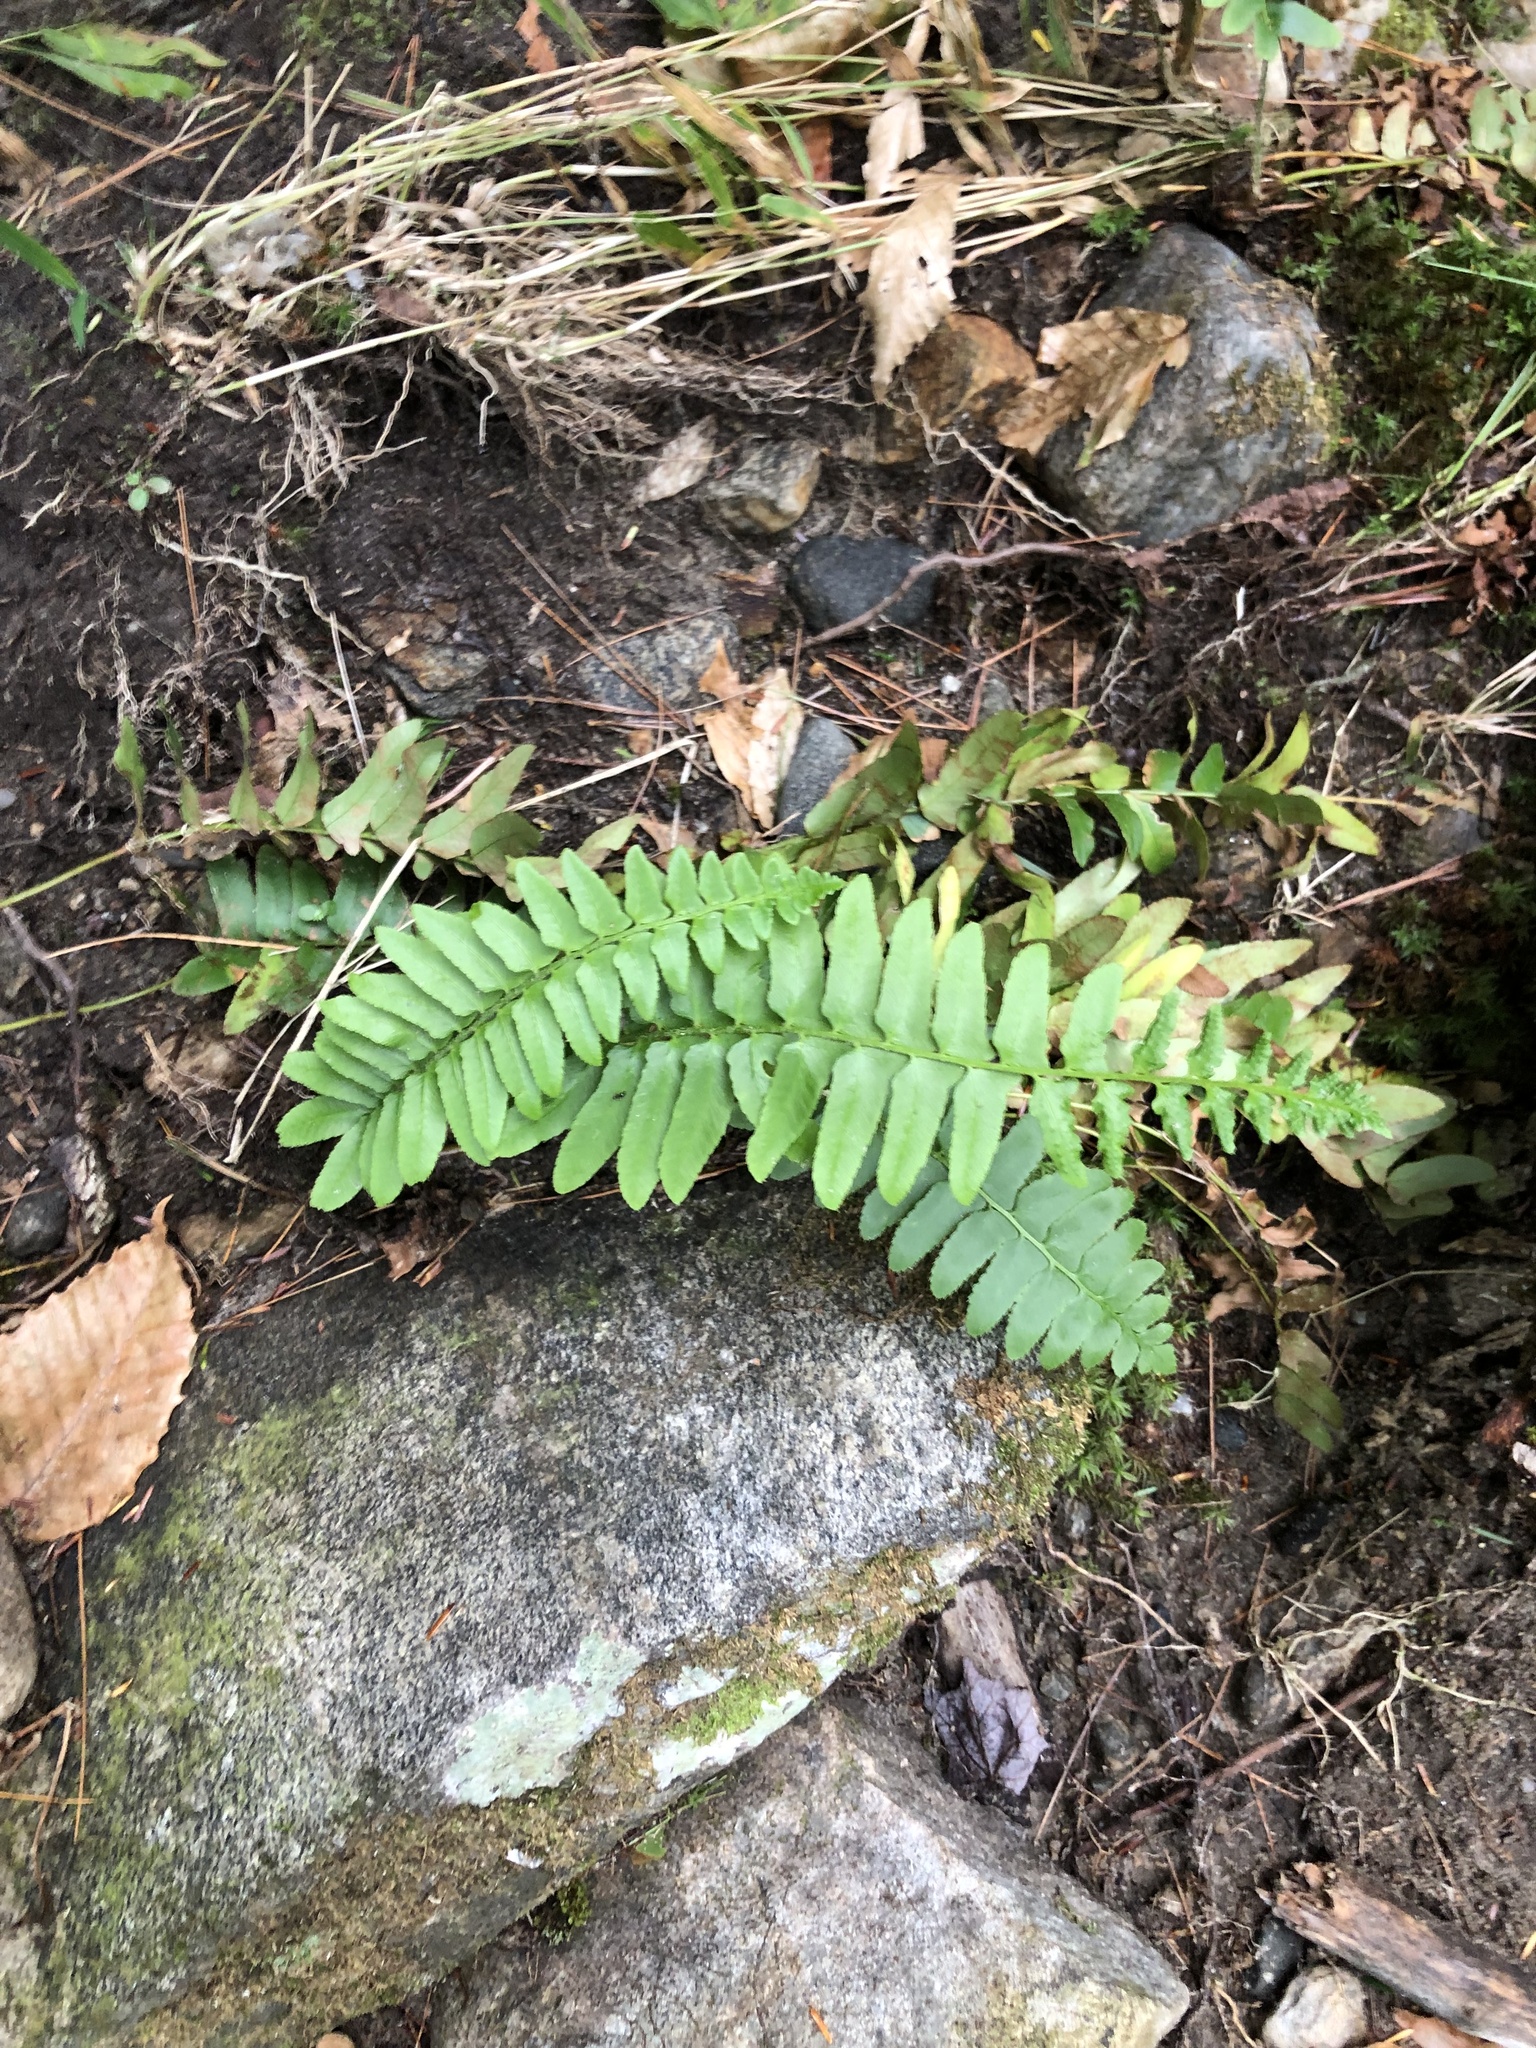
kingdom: Plantae
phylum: Tracheophyta
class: Polypodiopsida
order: Polypodiales
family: Dryopteridaceae
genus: Polystichum
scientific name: Polystichum acrostichoides
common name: Christmas fern
